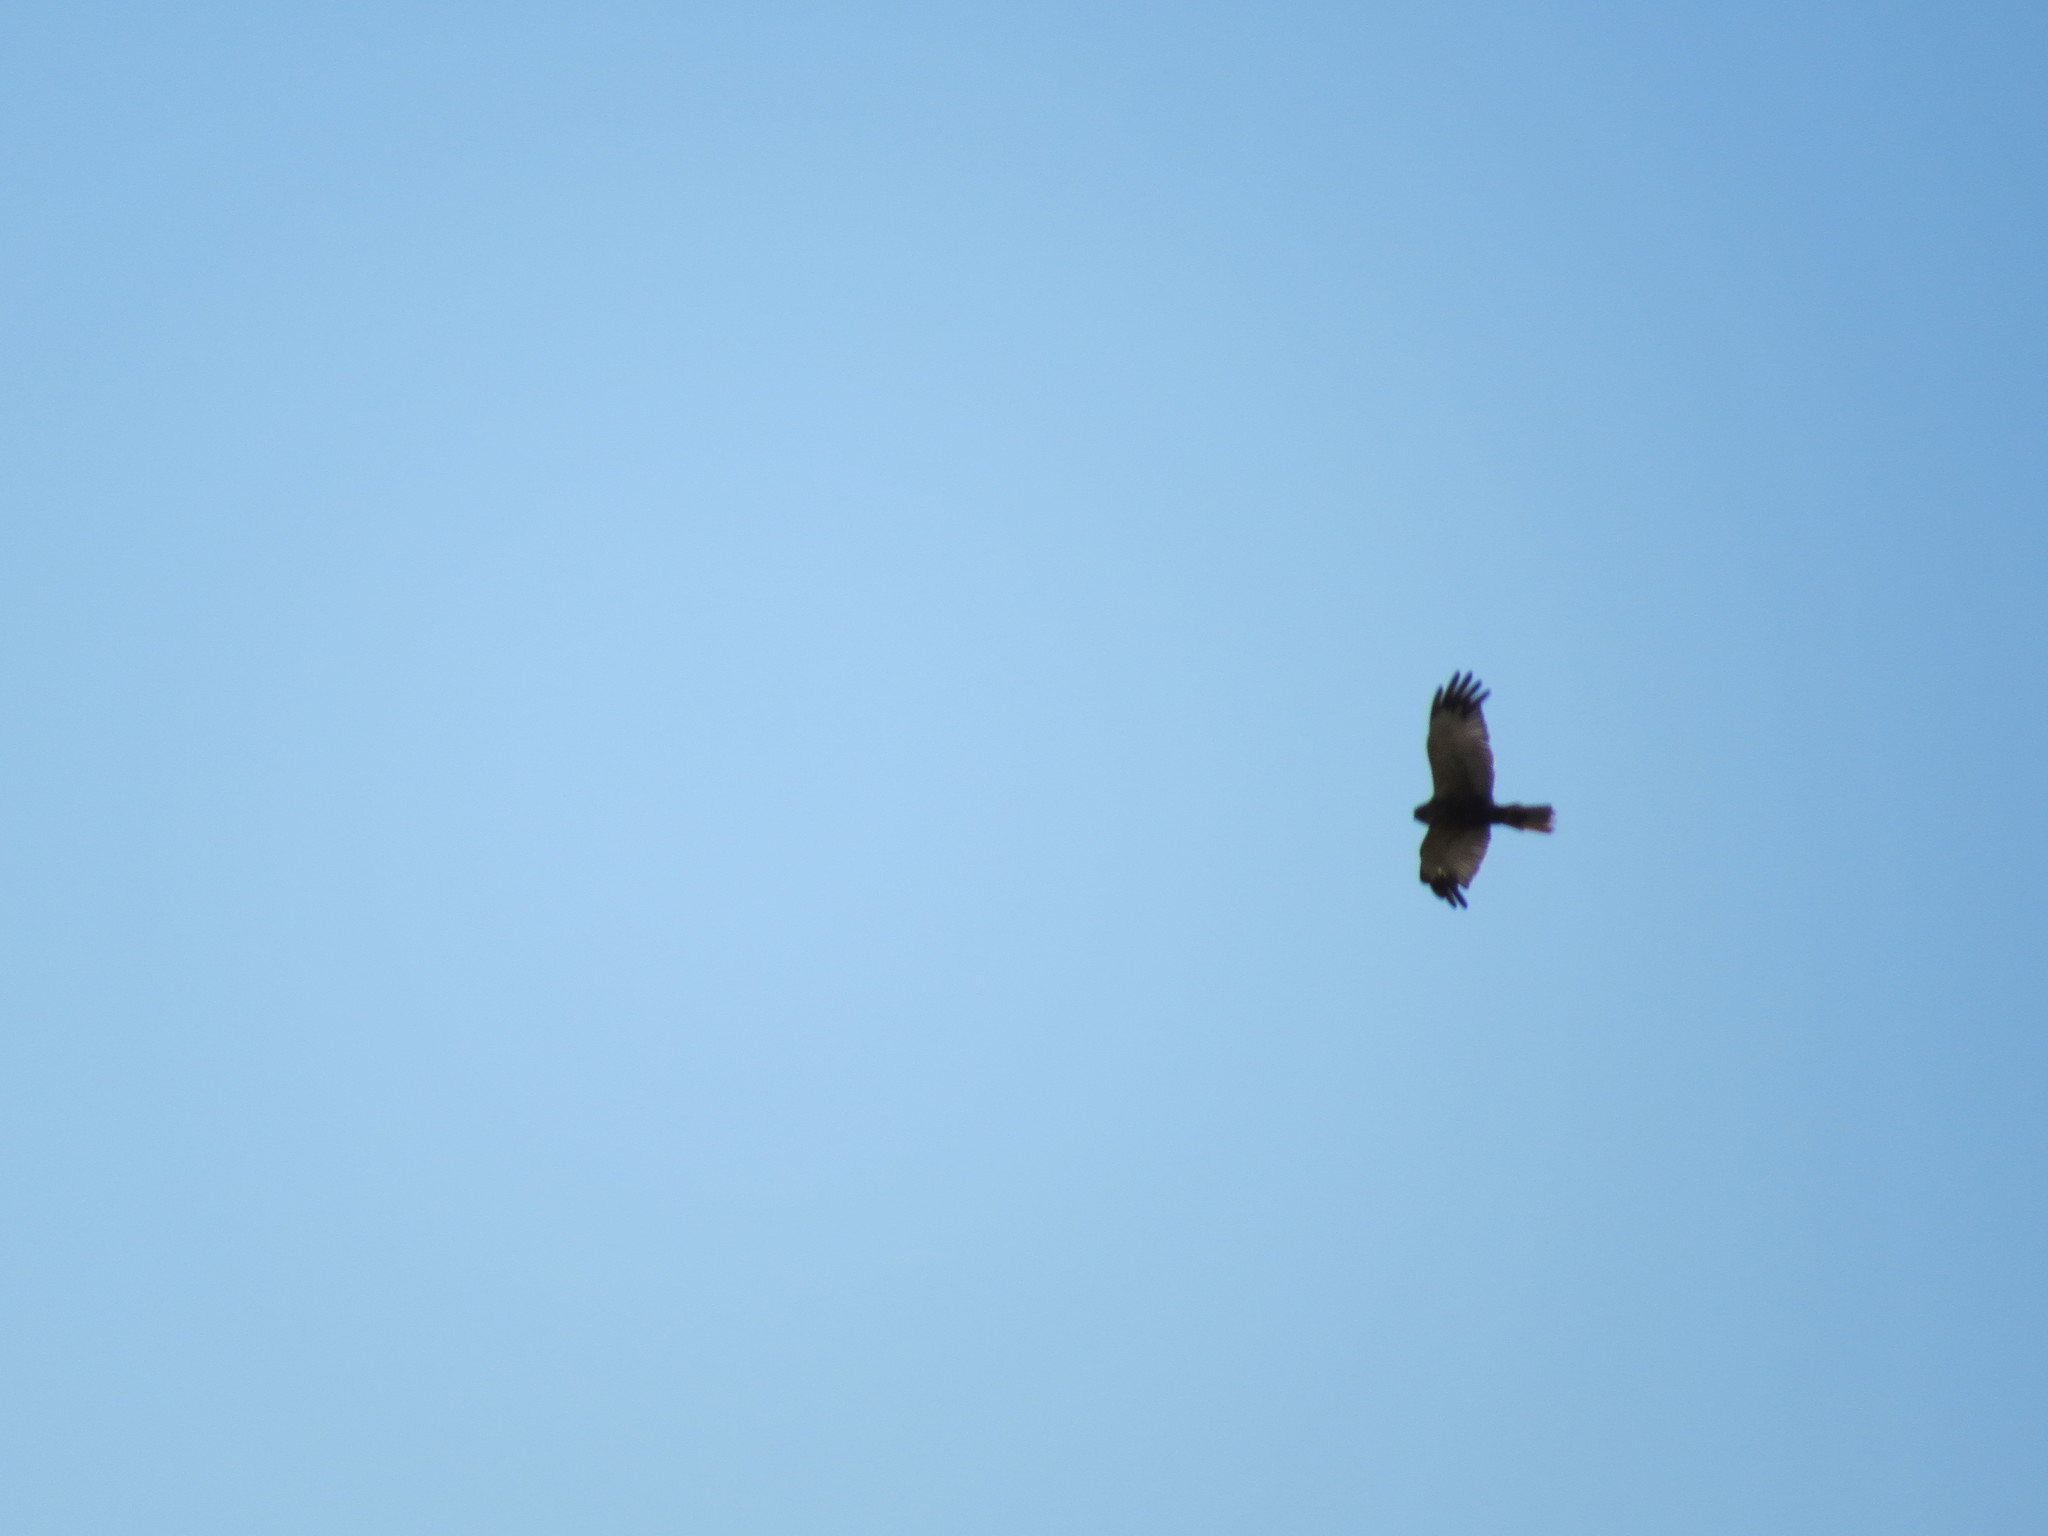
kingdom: Animalia
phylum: Chordata
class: Aves
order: Accipitriformes
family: Accipitridae
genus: Circus
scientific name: Circus aeruginosus
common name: Western marsh harrier
